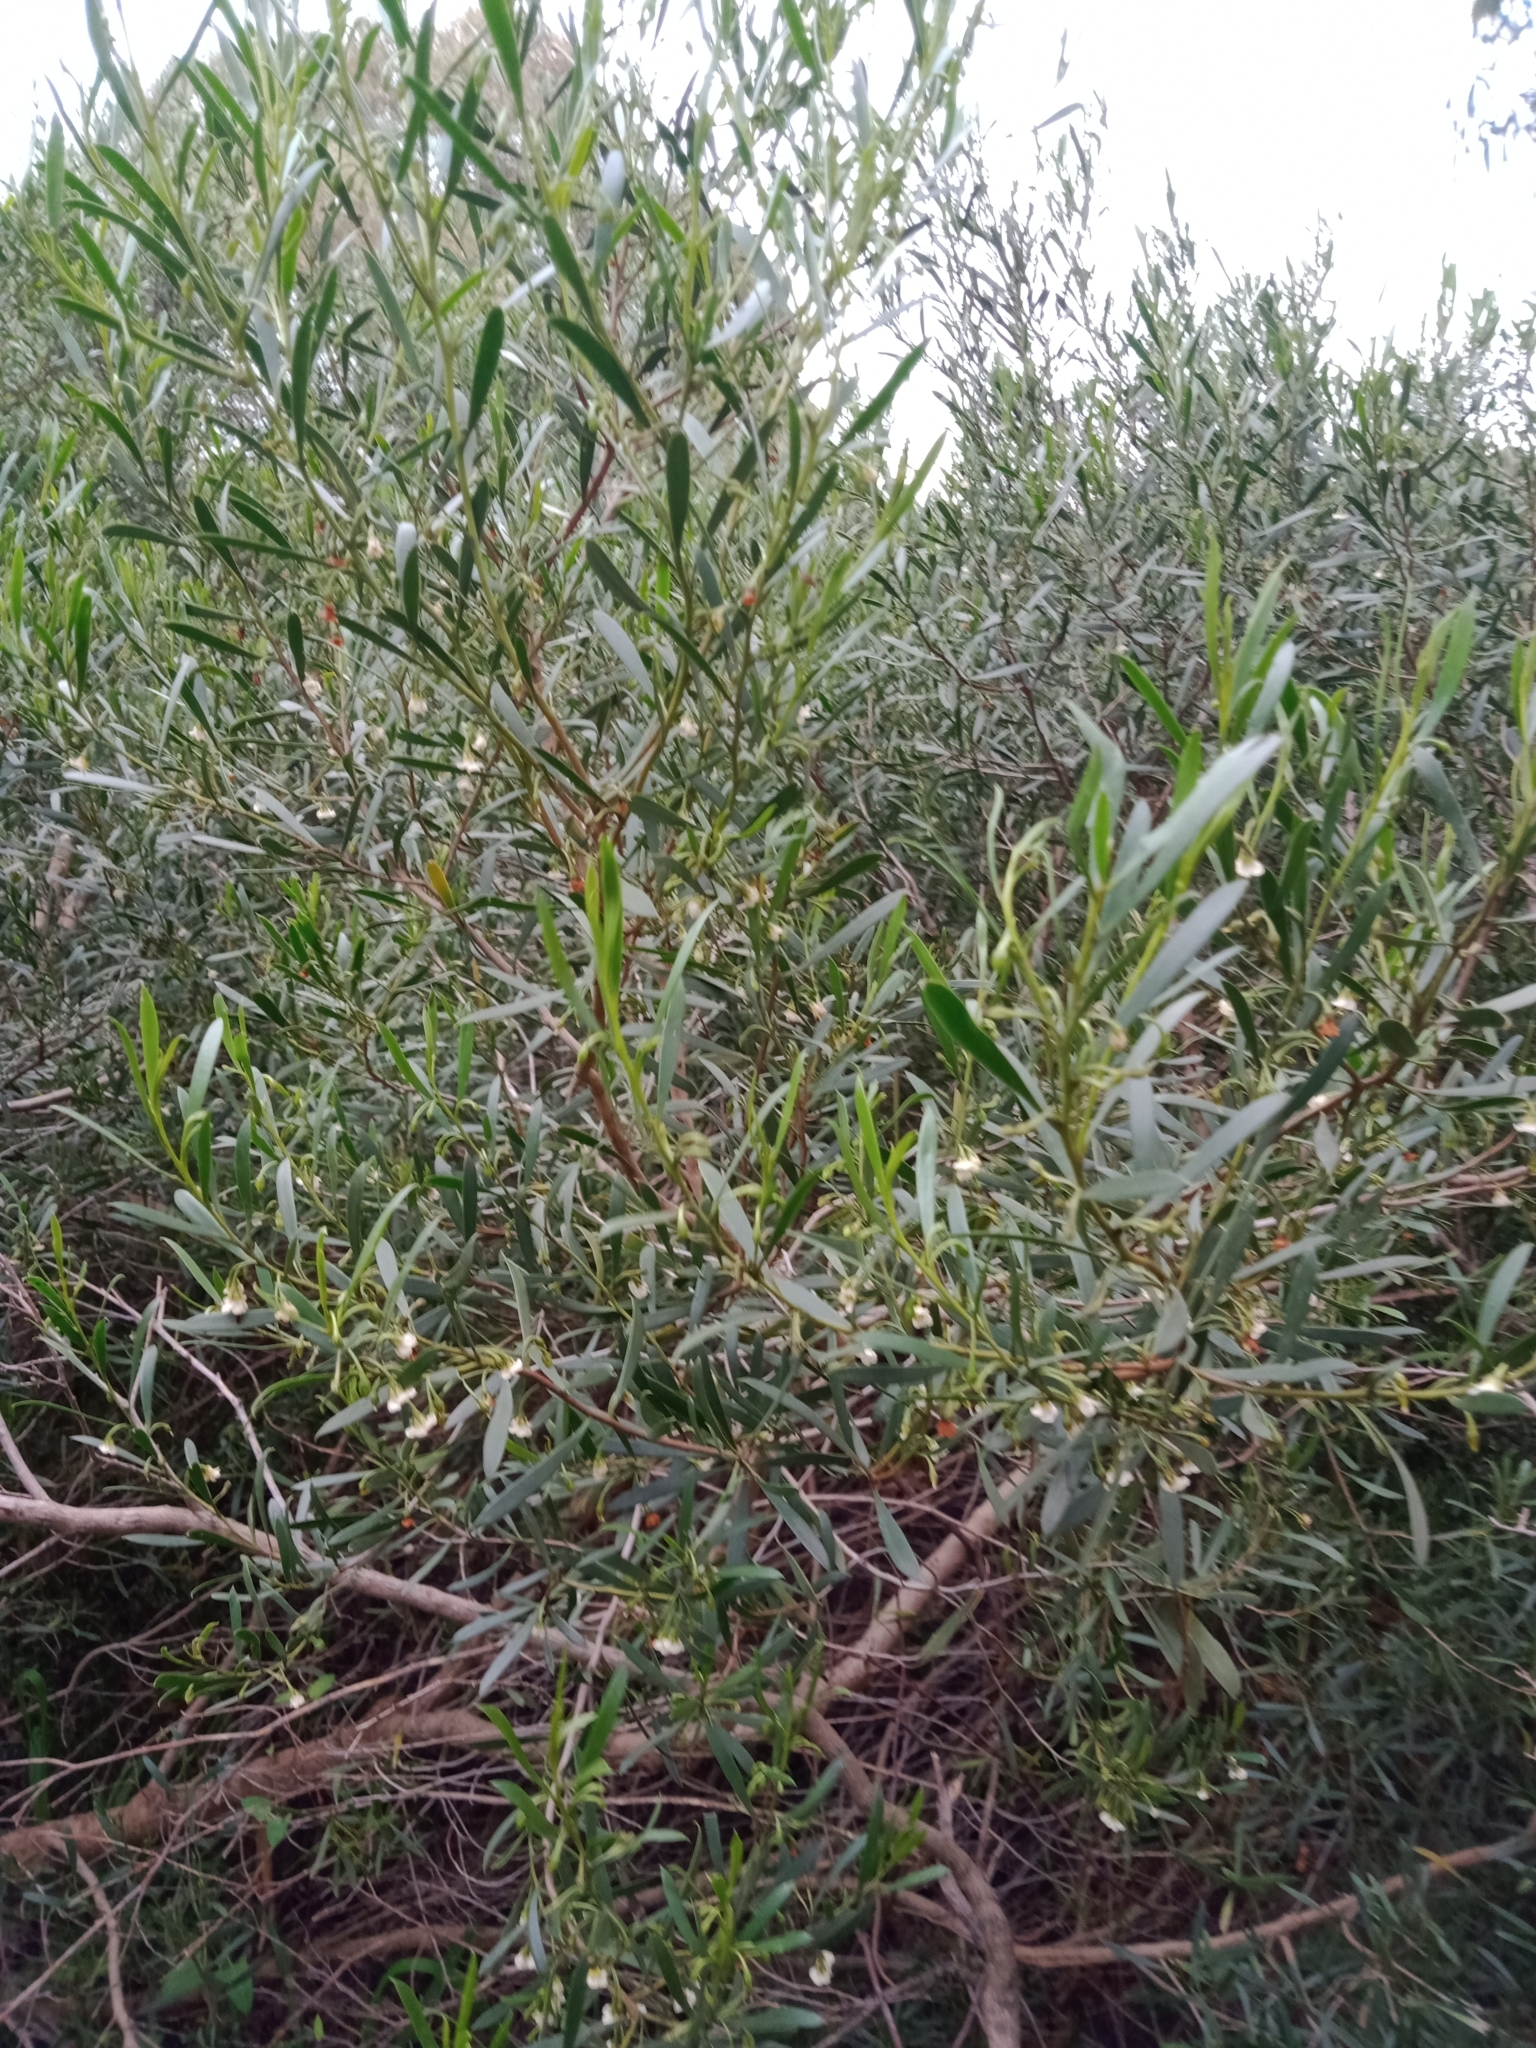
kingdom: Plantae
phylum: Tracheophyta
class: Magnoliopsida
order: Lamiales
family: Scrophulariaceae
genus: Eremophila
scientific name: Eremophila deserti
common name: Ellangowan-poisonbush
